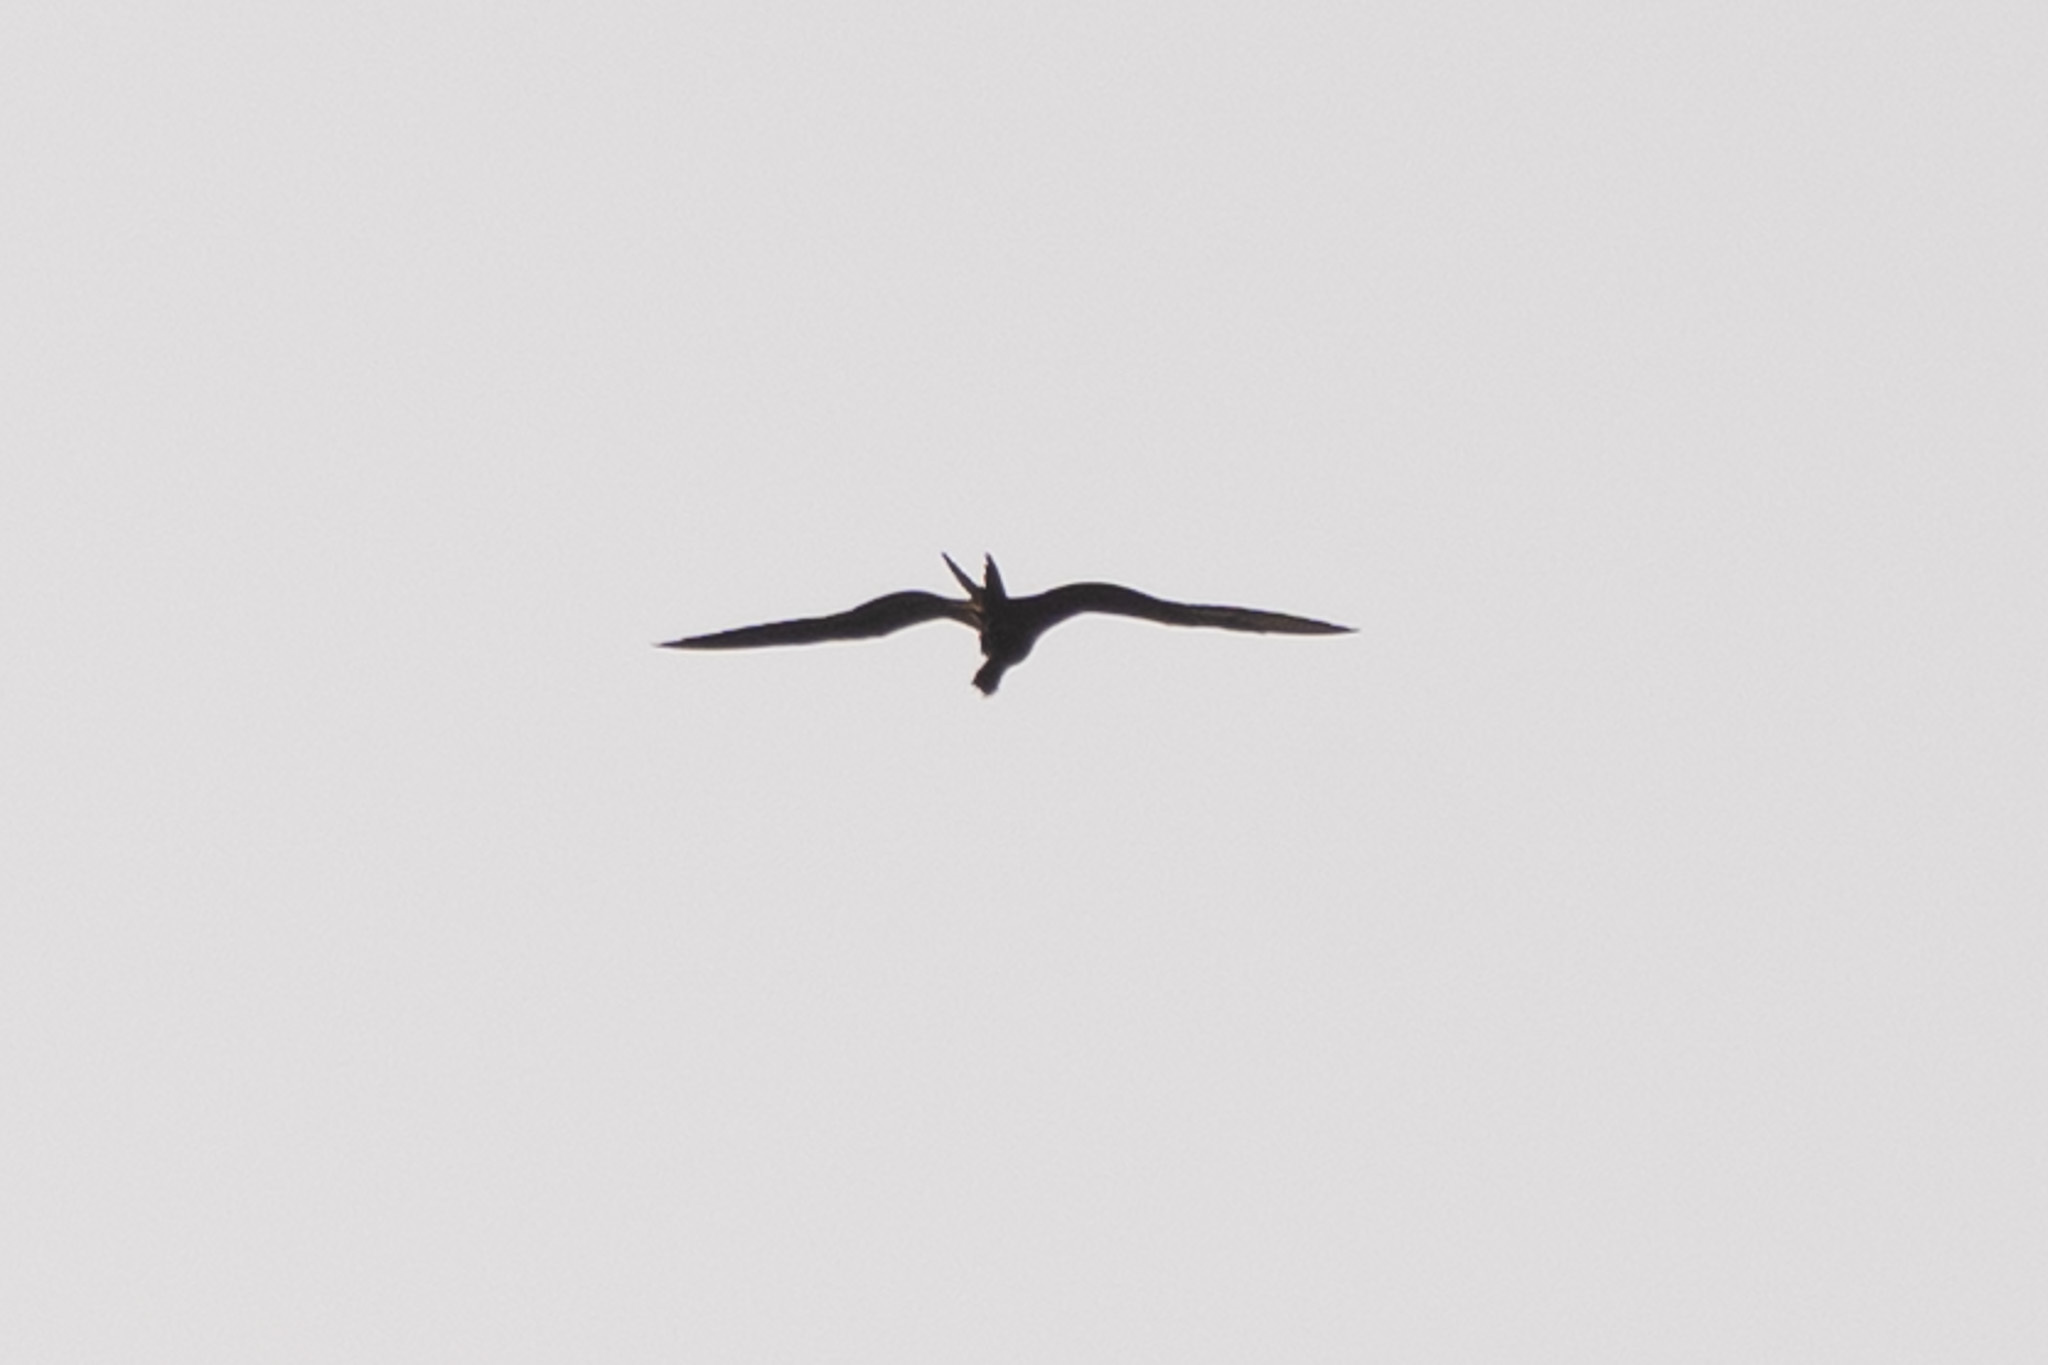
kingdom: Animalia
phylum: Chordata
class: Aves
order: Suliformes
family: Fregatidae
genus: Fregata
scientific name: Fregata magnificens
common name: Magnificent frigatebird
